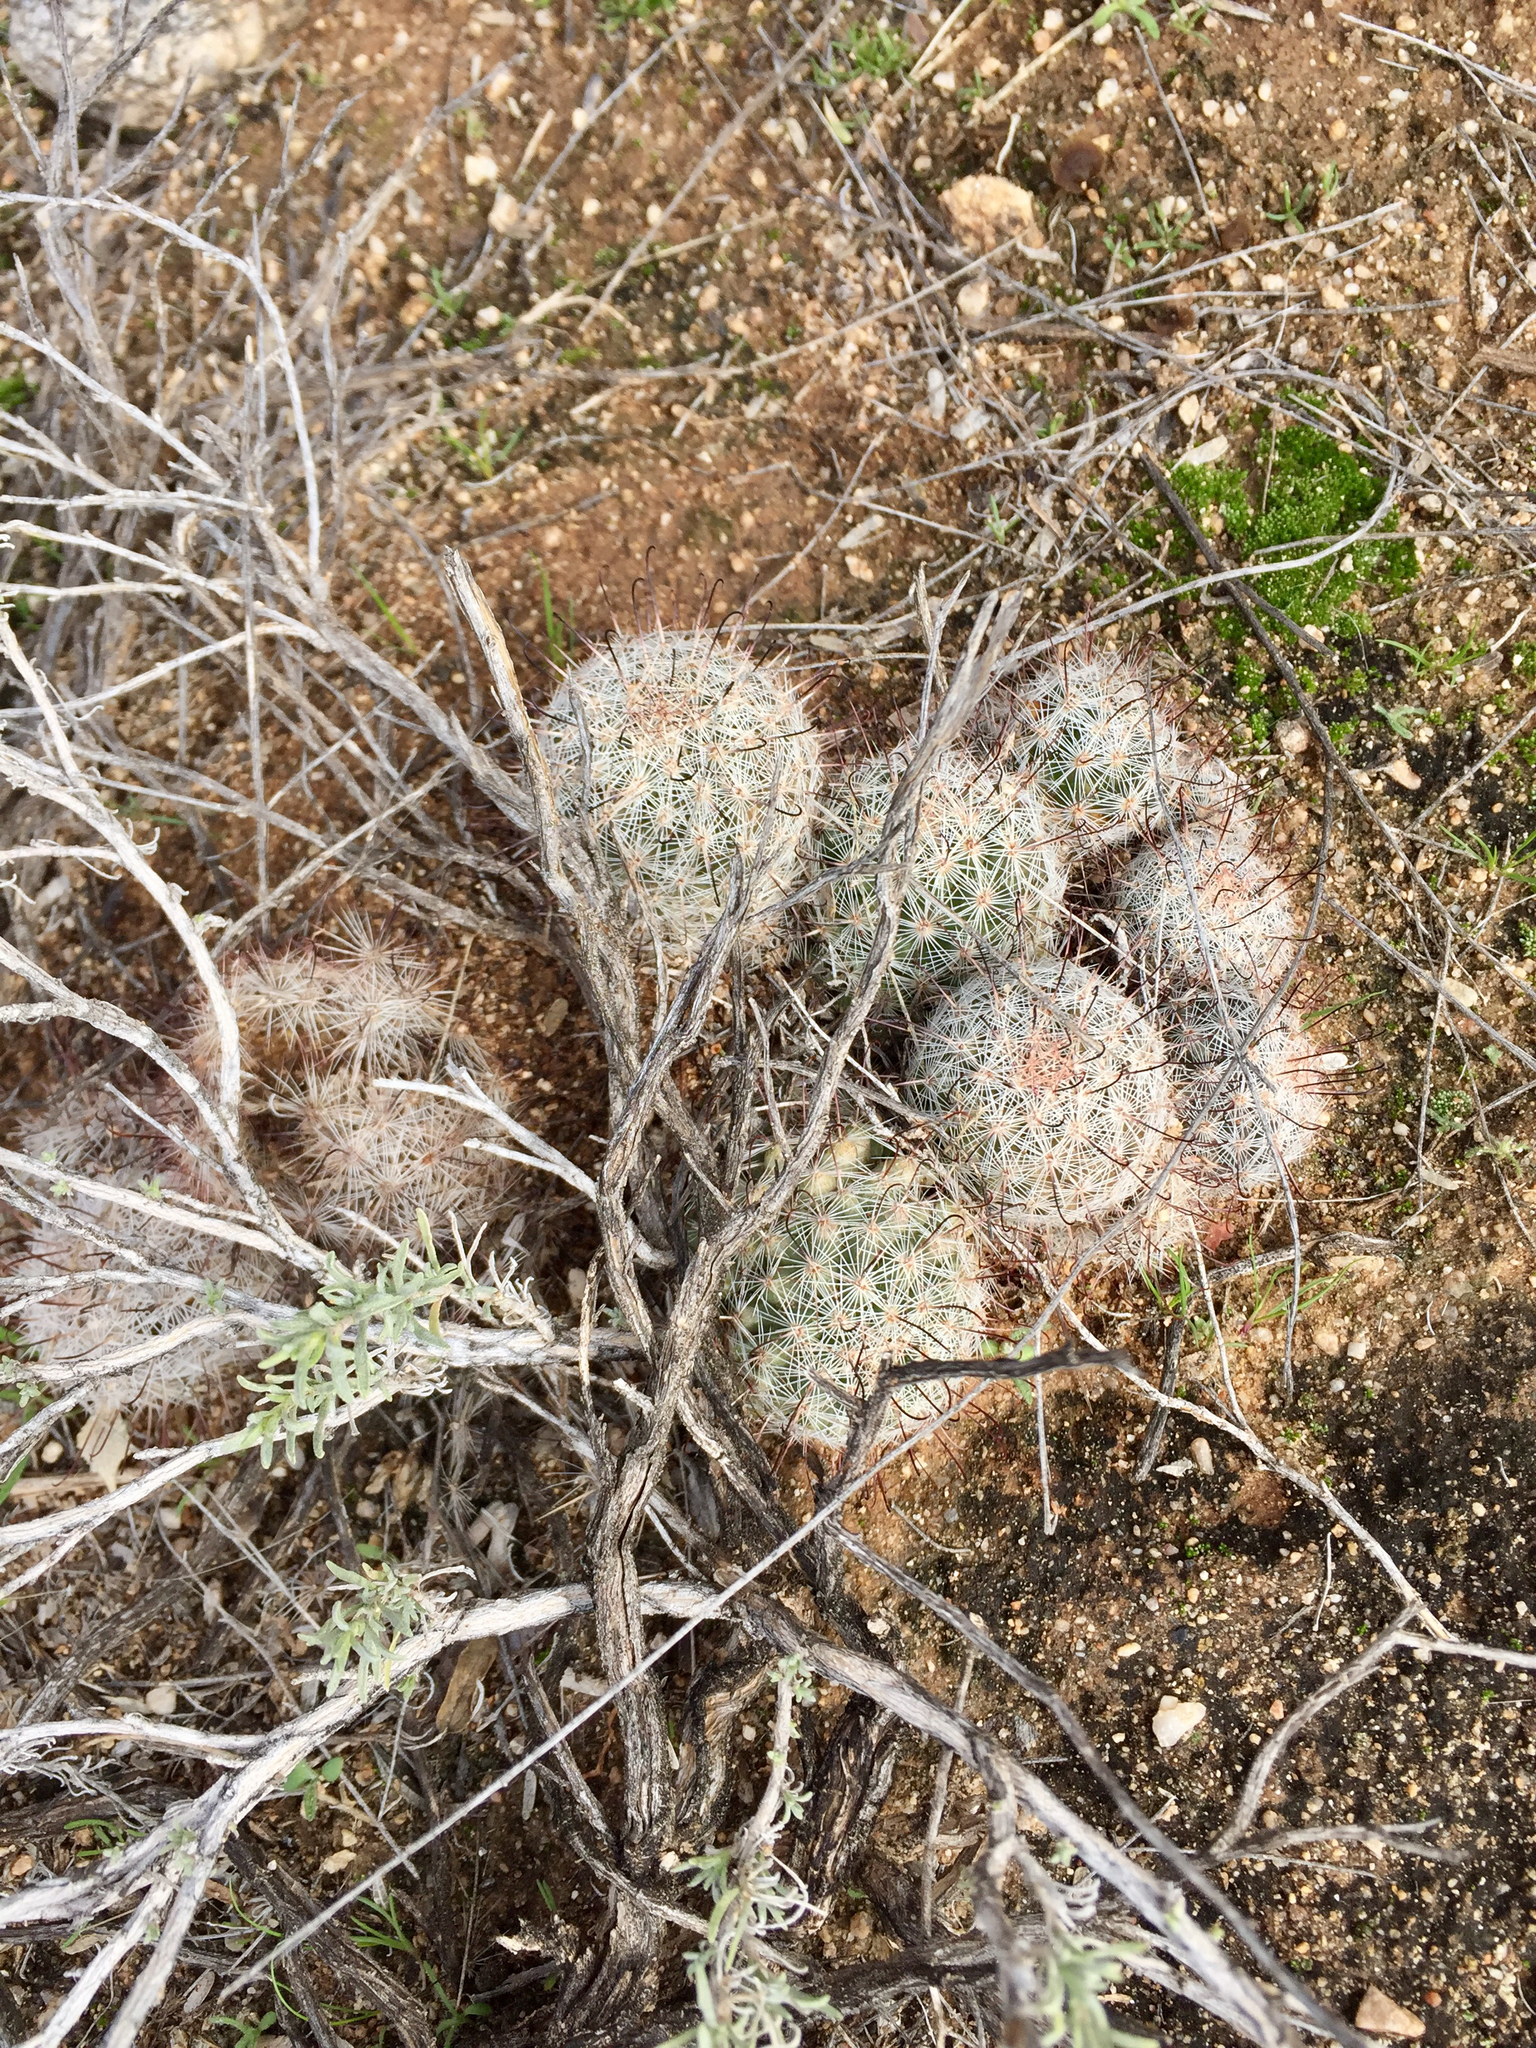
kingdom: Plantae
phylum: Tracheophyta
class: Magnoliopsida
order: Caryophyllales
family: Cactaceae
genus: Cochemiea
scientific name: Cochemiea grahamii
